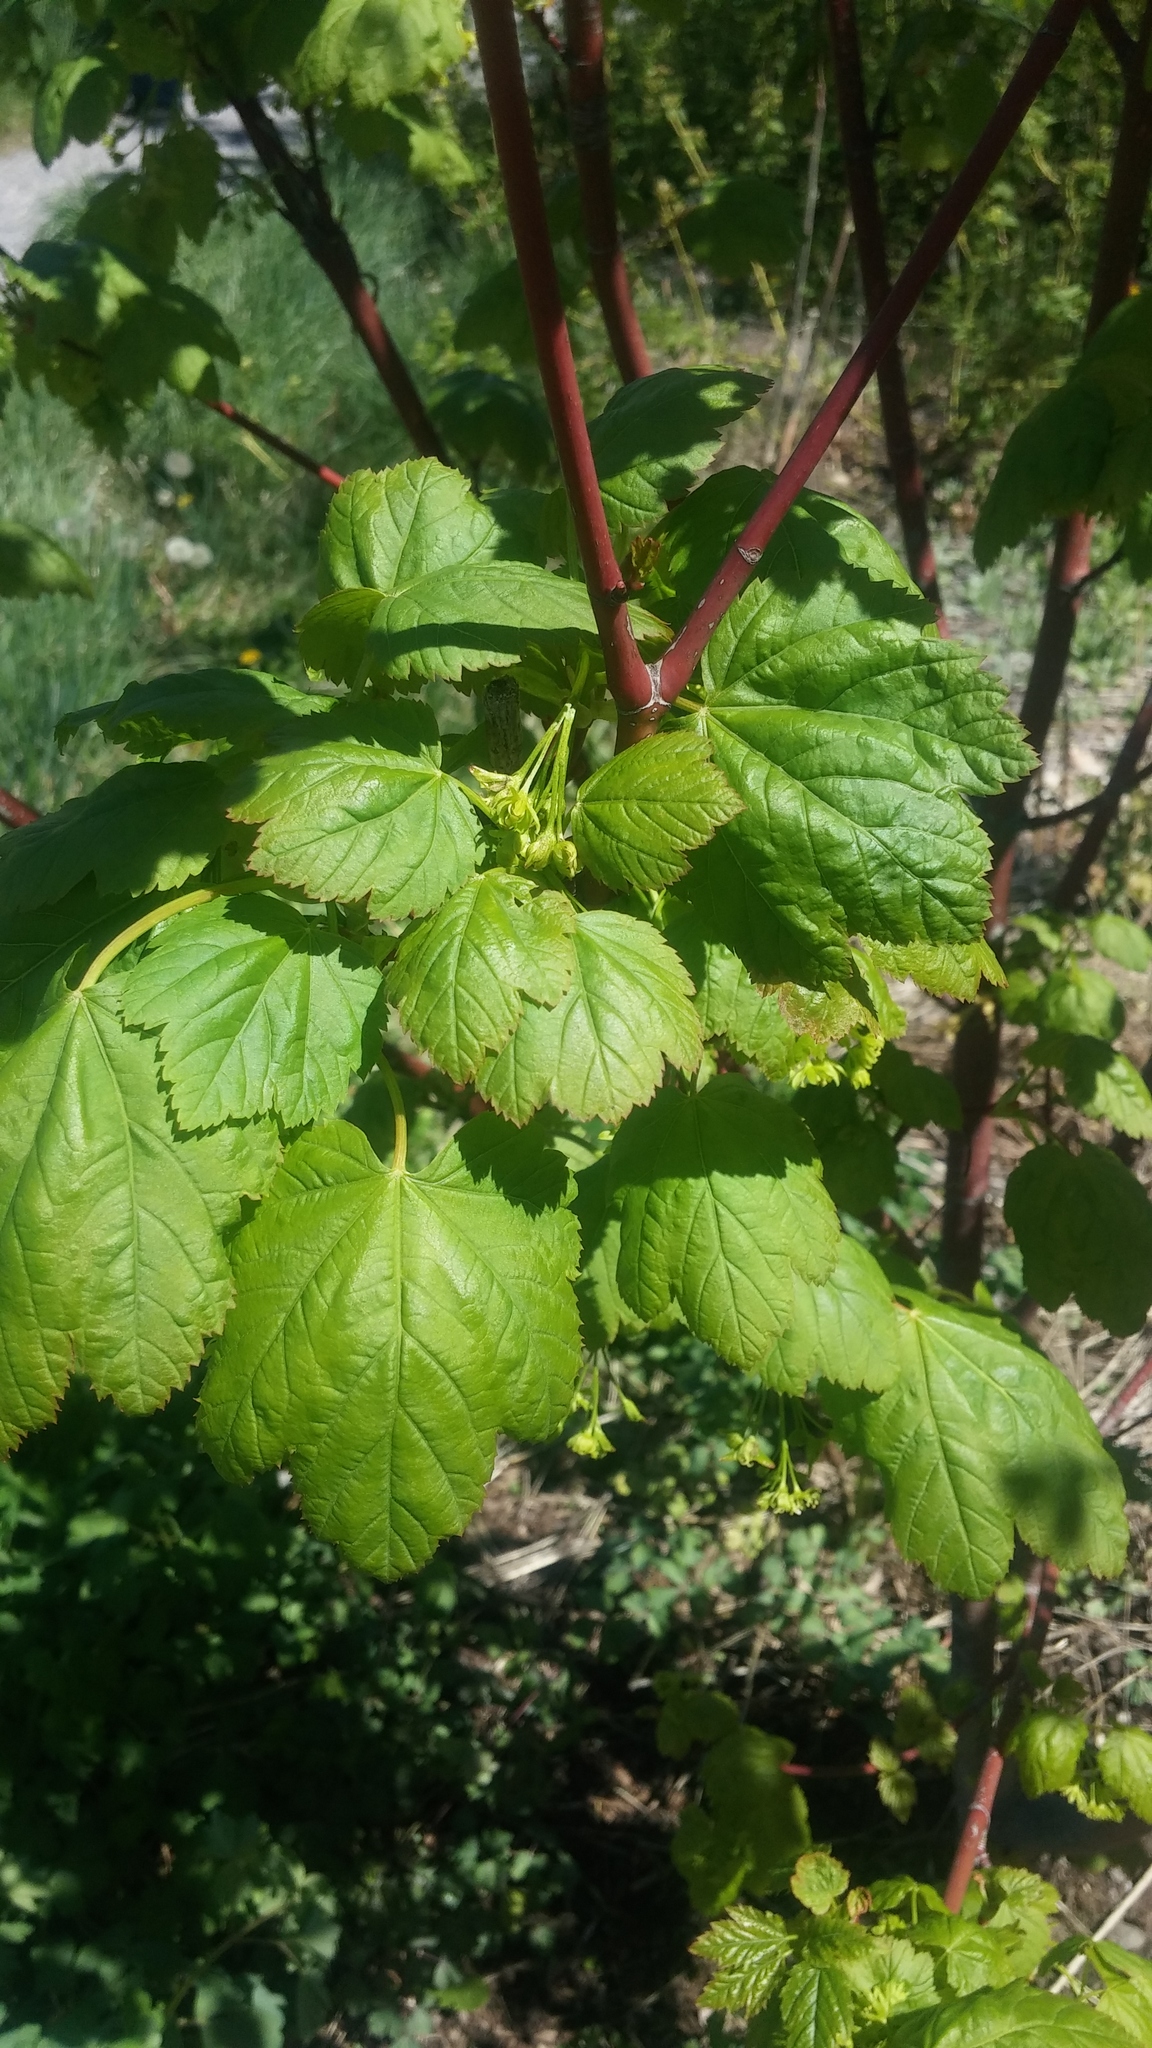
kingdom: Plantae
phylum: Tracheophyta
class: Magnoliopsida
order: Sapindales
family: Sapindaceae
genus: Acer
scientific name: Acer glabrum
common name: Rocky mountain maple
